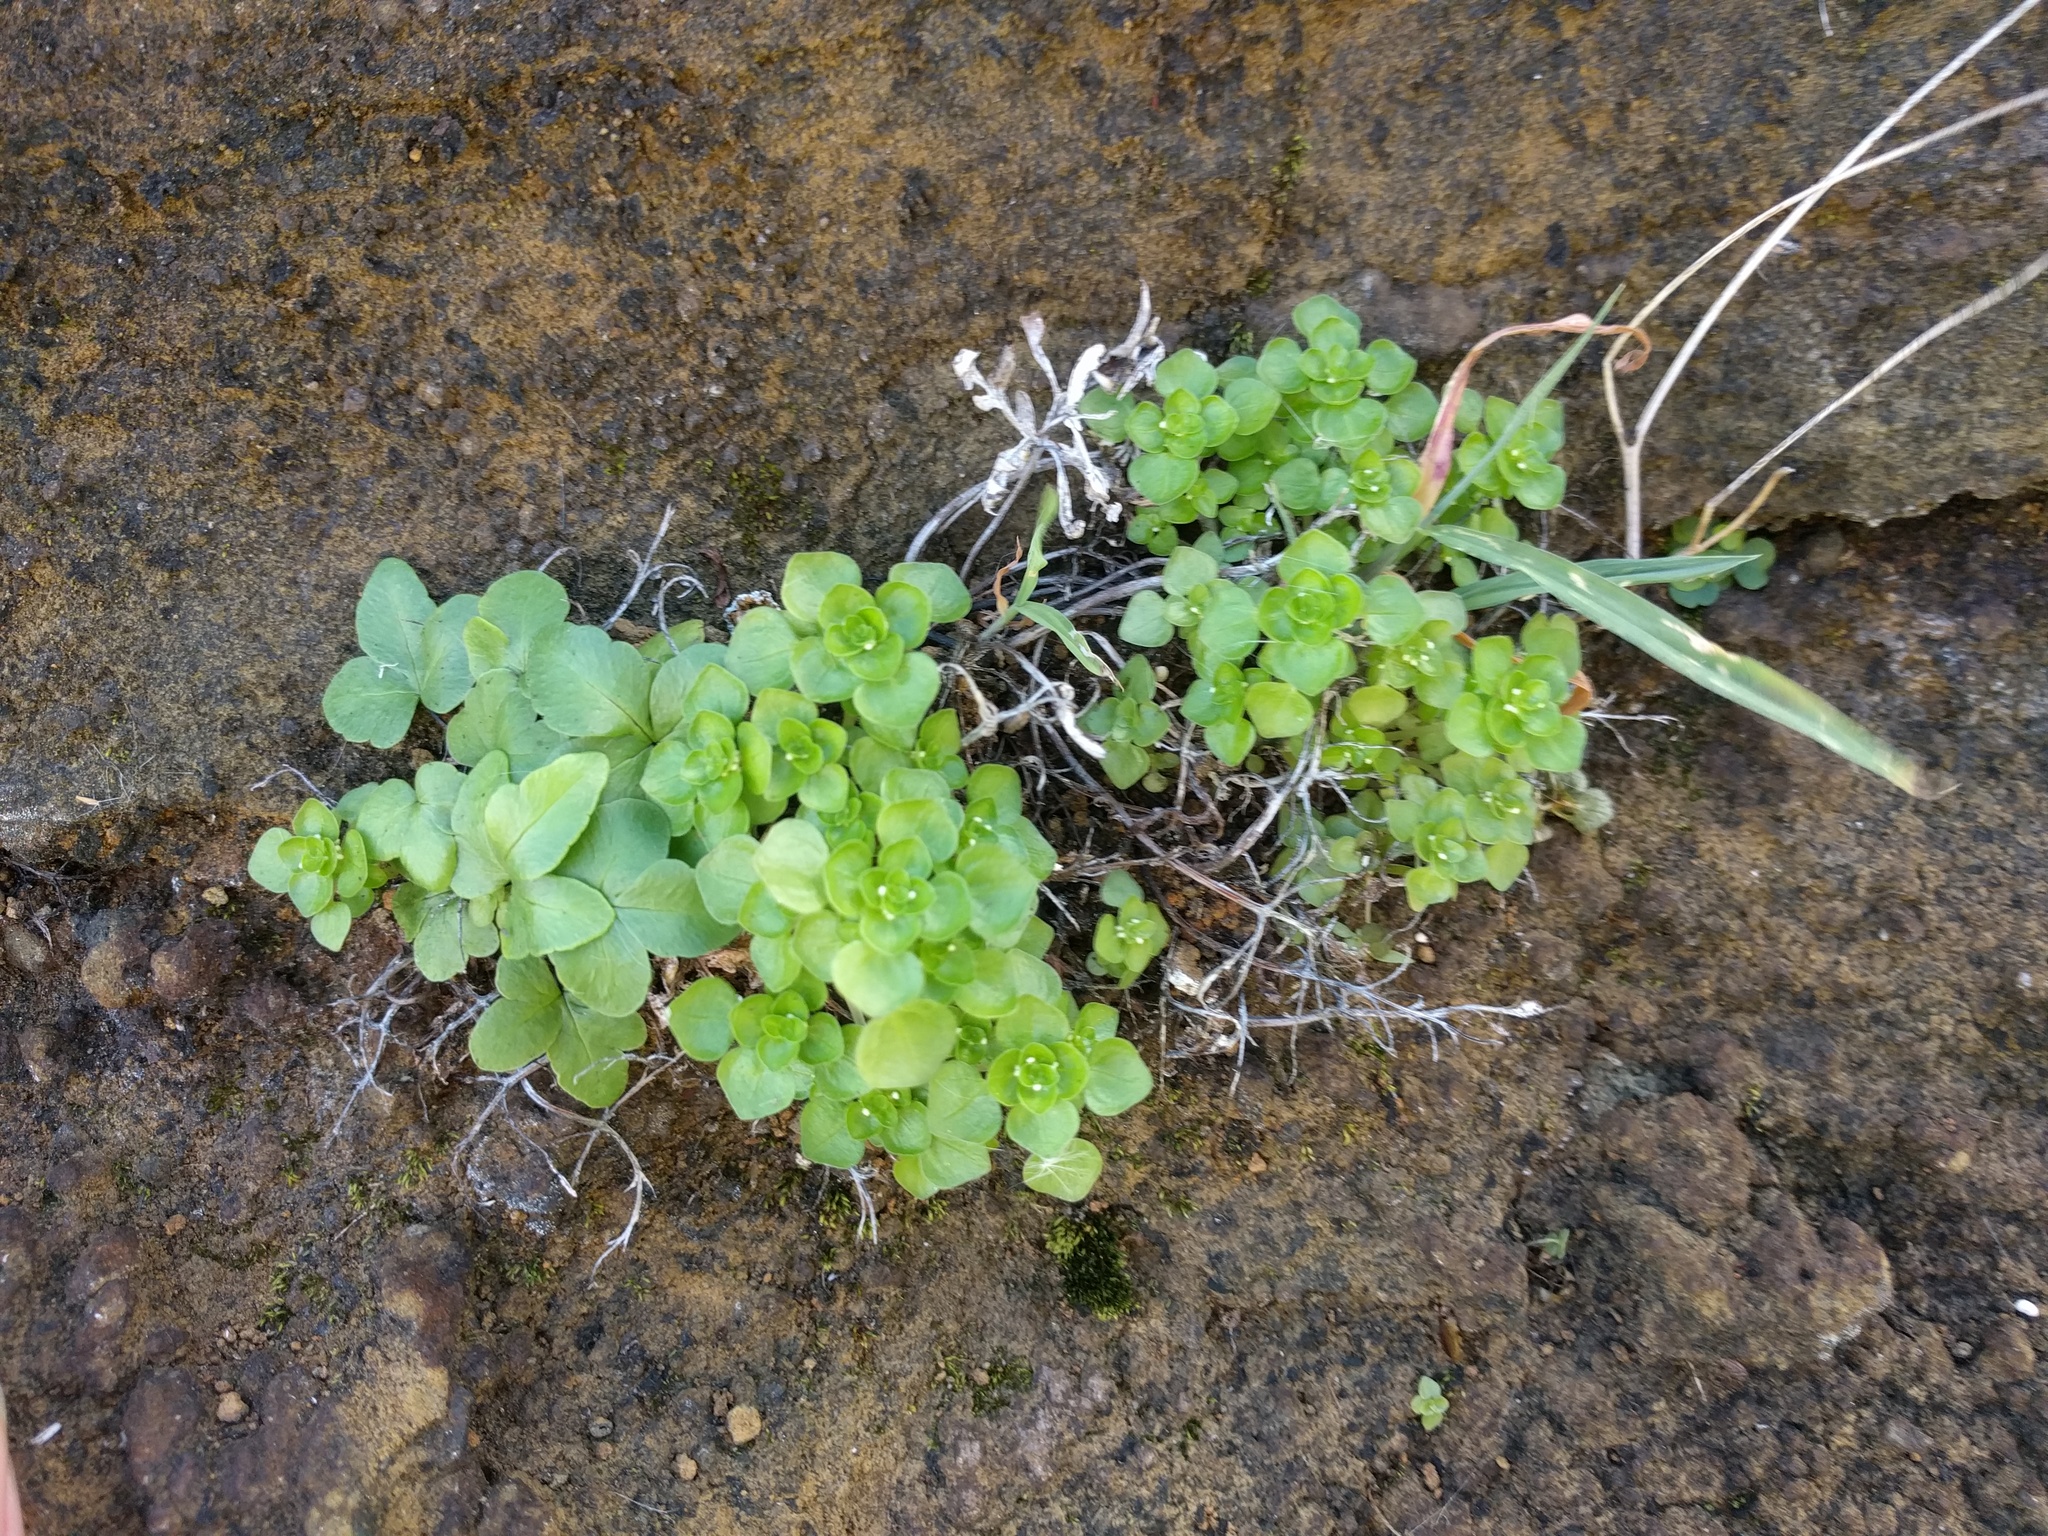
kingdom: Plantae
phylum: Tracheophyta
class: Magnoliopsida
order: Rosales
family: Urticaceae
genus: Pilea
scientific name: Pilea peploides
